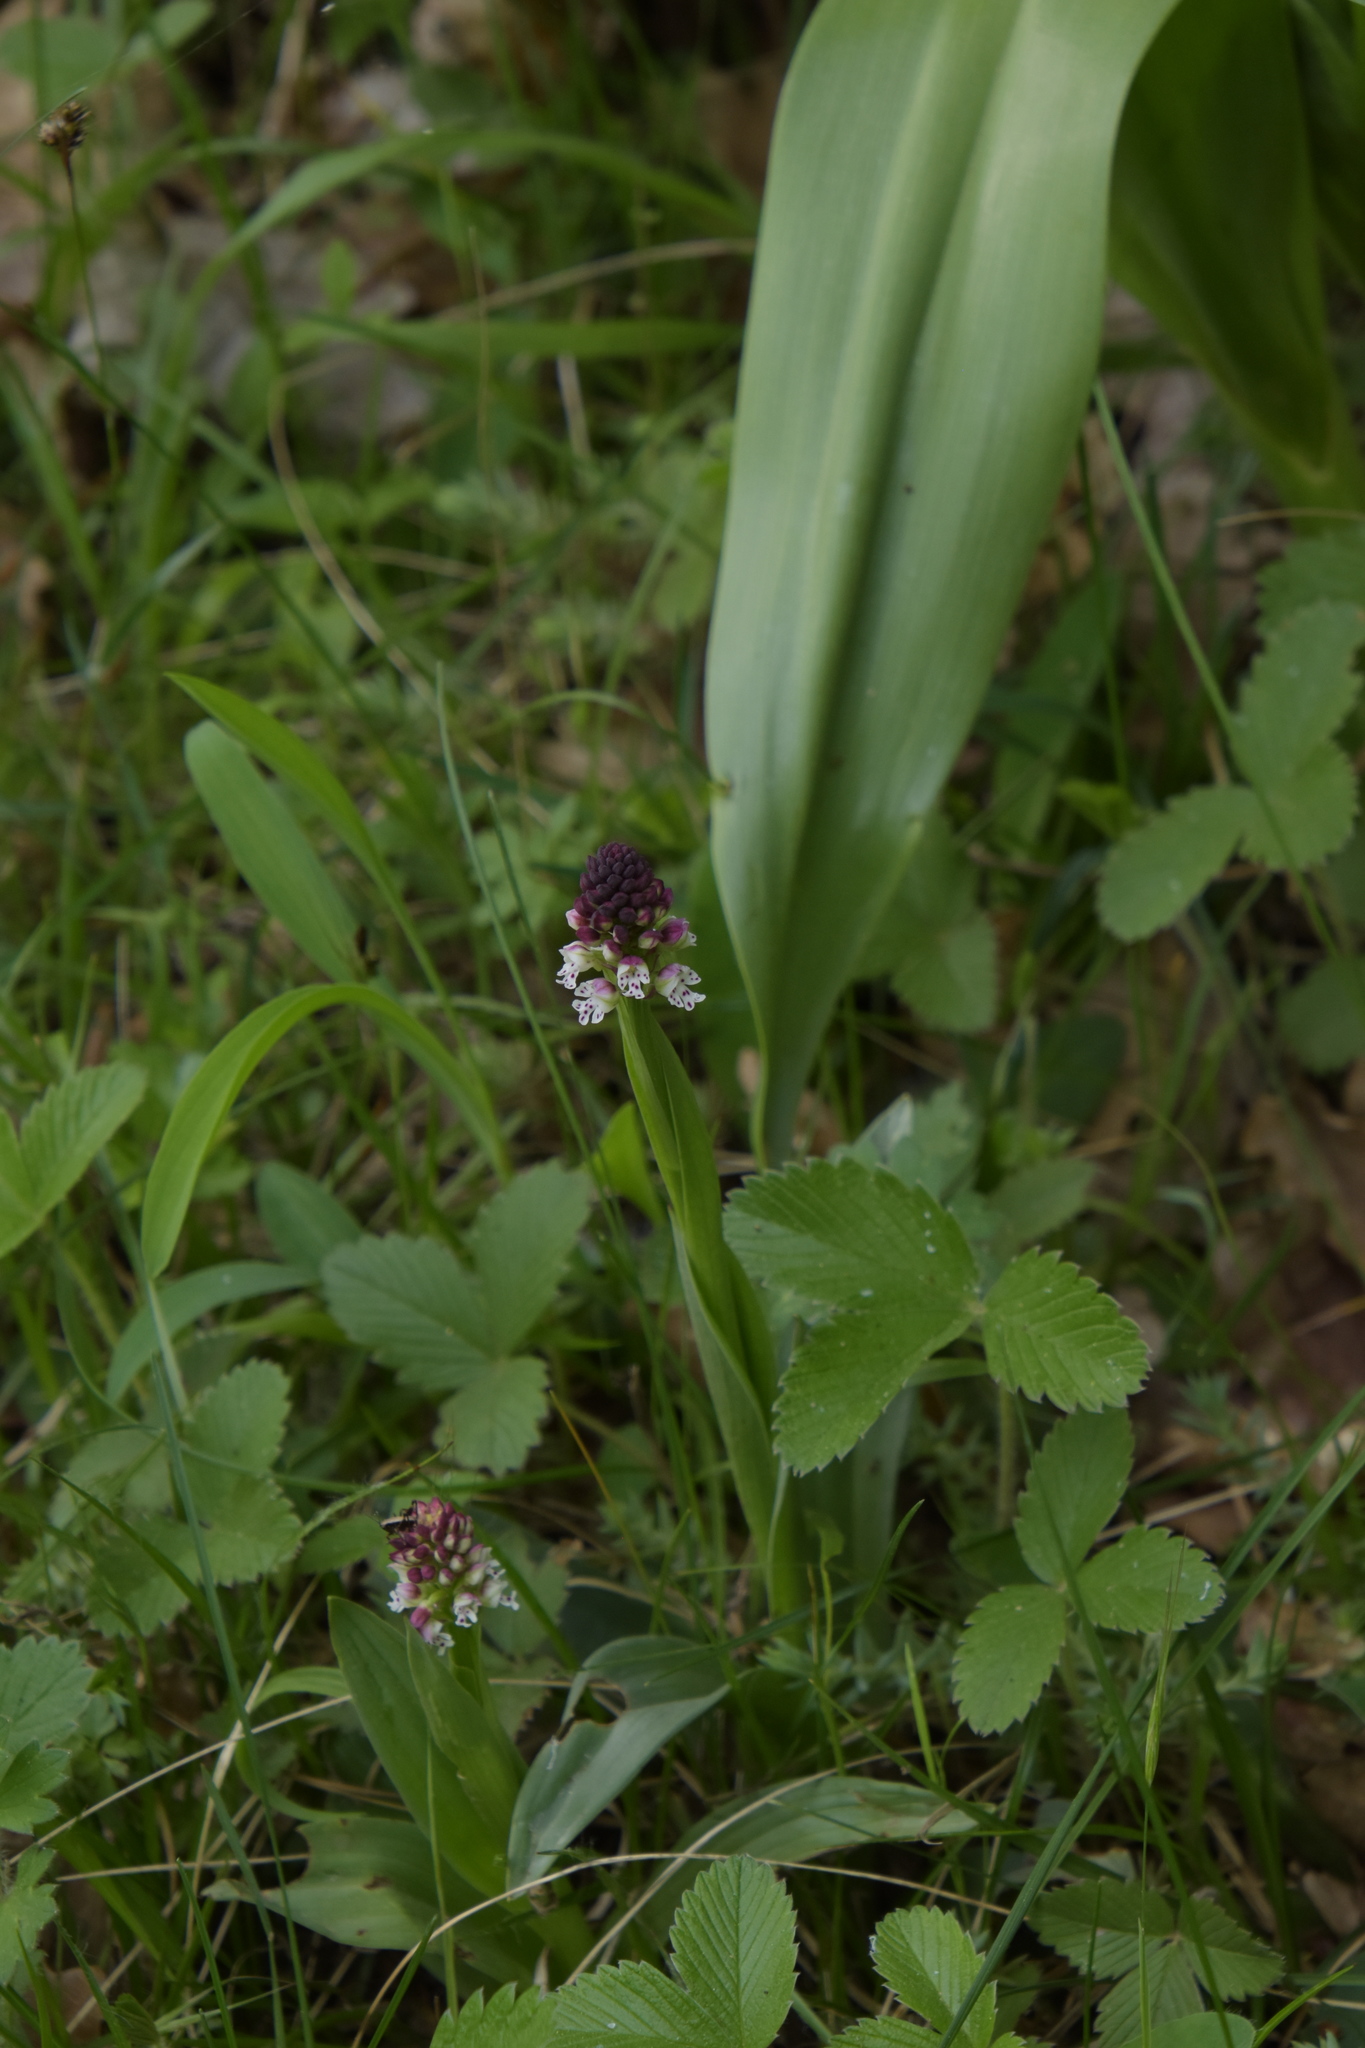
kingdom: Plantae
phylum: Tracheophyta
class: Liliopsida
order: Asparagales
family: Orchidaceae
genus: Neotinea
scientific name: Neotinea ustulata
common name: Burnt orchid
